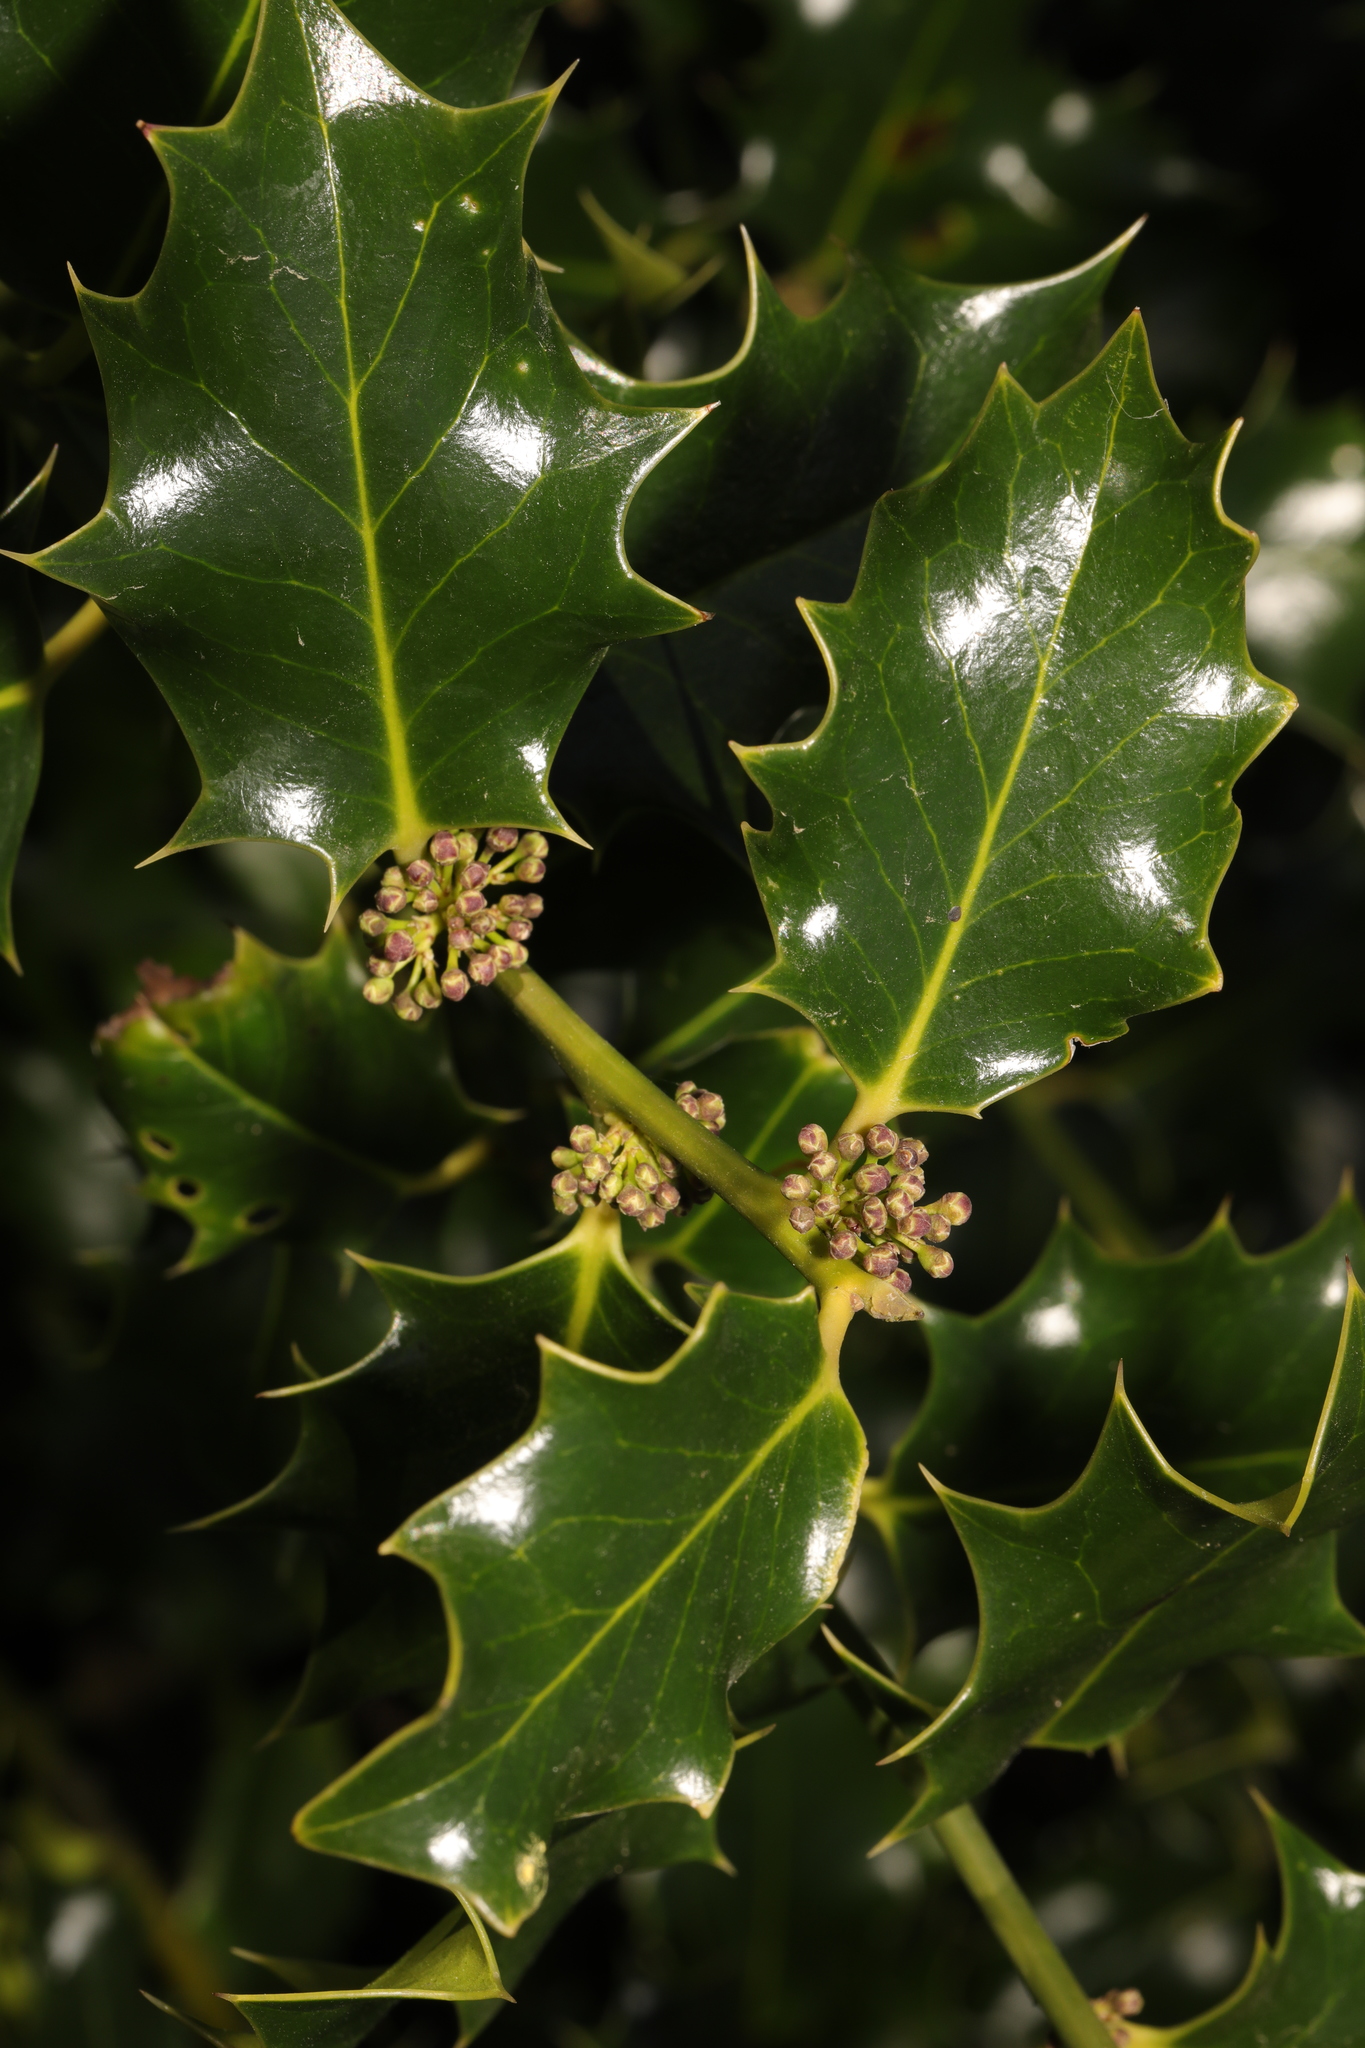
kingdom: Plantae
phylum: Tracheophyta
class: Magnoliopsida
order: Aquifoliales
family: Aquifoliaceae
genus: Ilex
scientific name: Ilex aquifolium
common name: English holly
